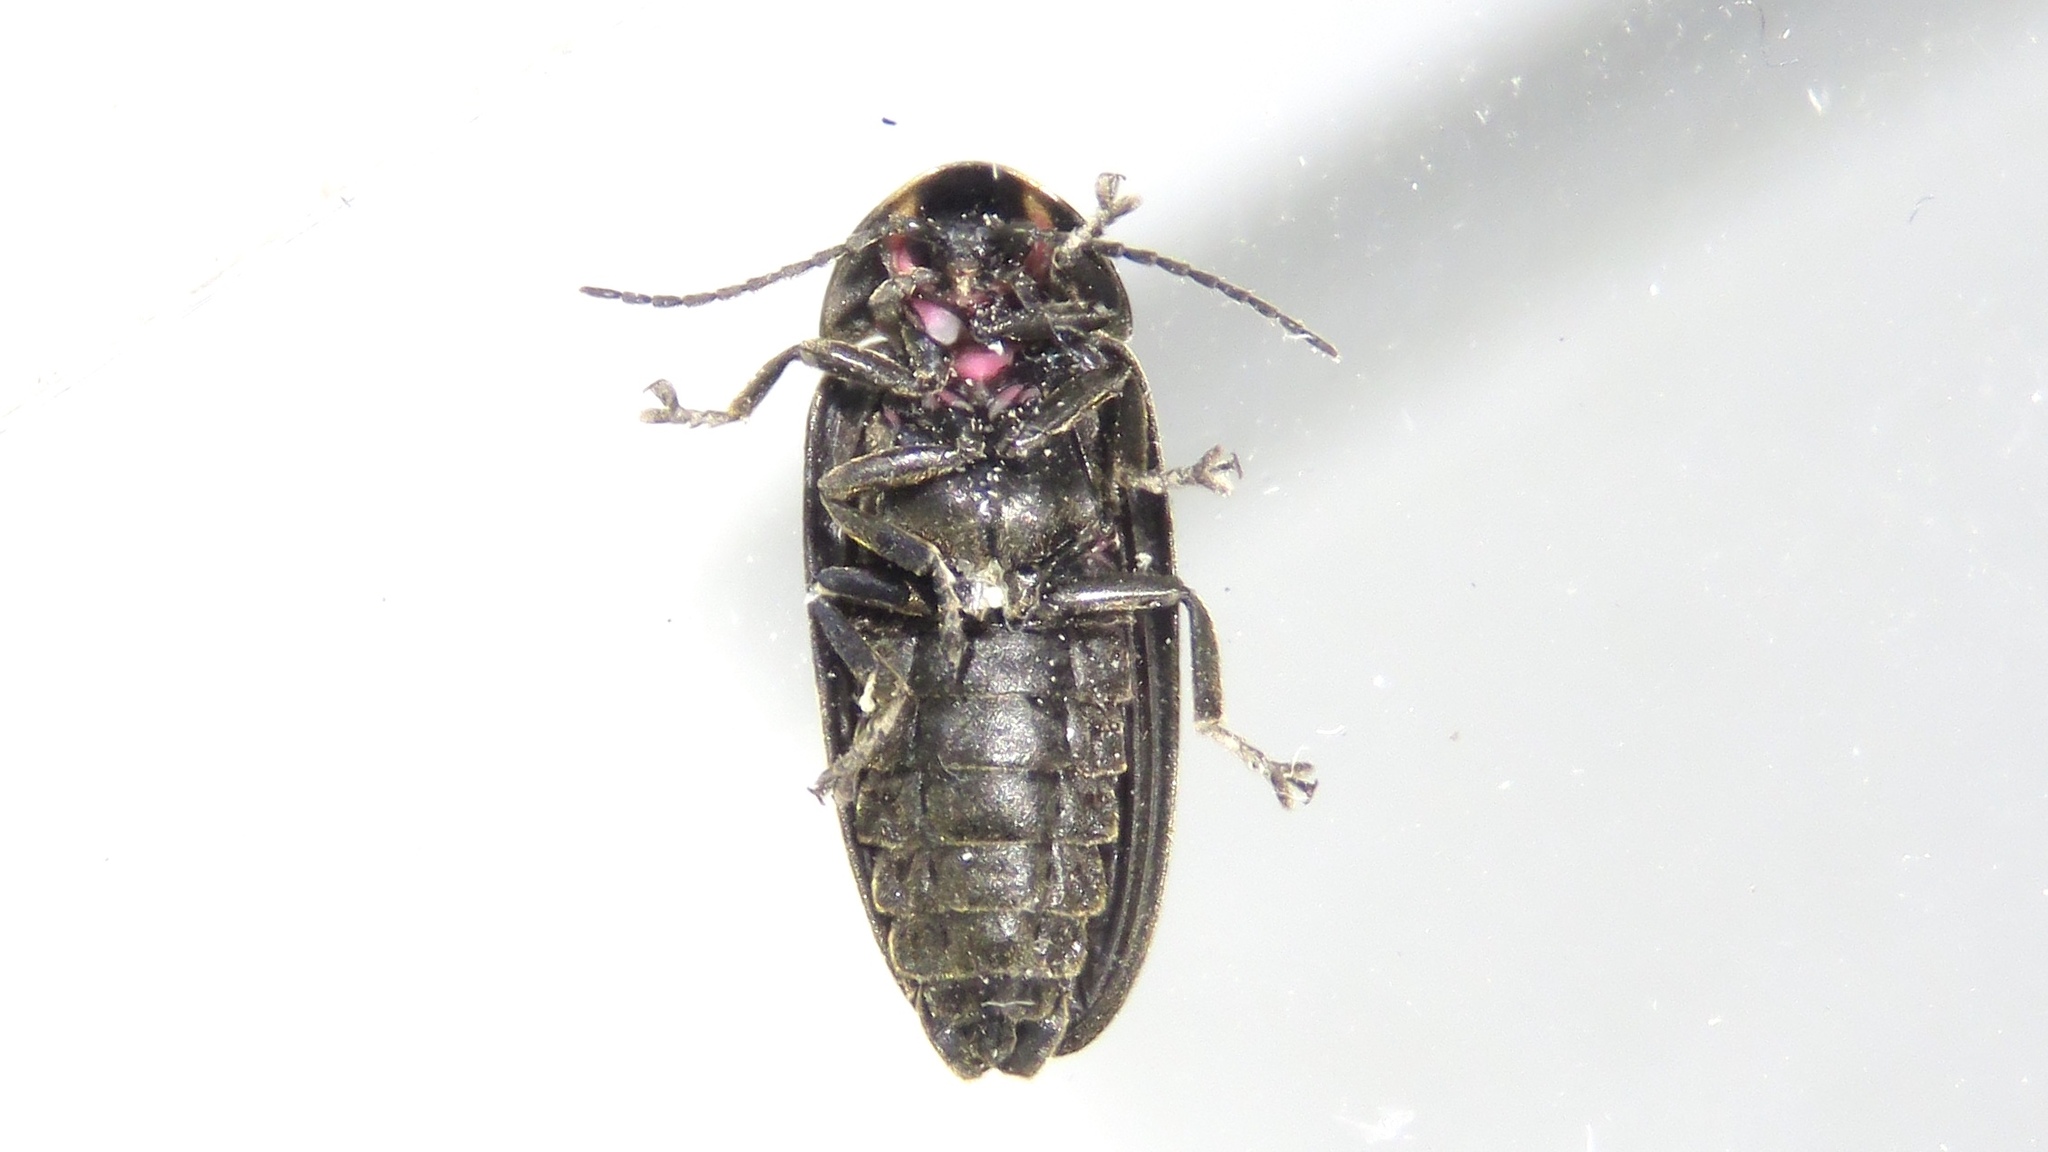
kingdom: Animalia
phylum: Arthropoda
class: Insecta
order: Coleoptera
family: Lampyridae
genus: Photinus
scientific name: Photinus corrusca
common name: Winter firefly
